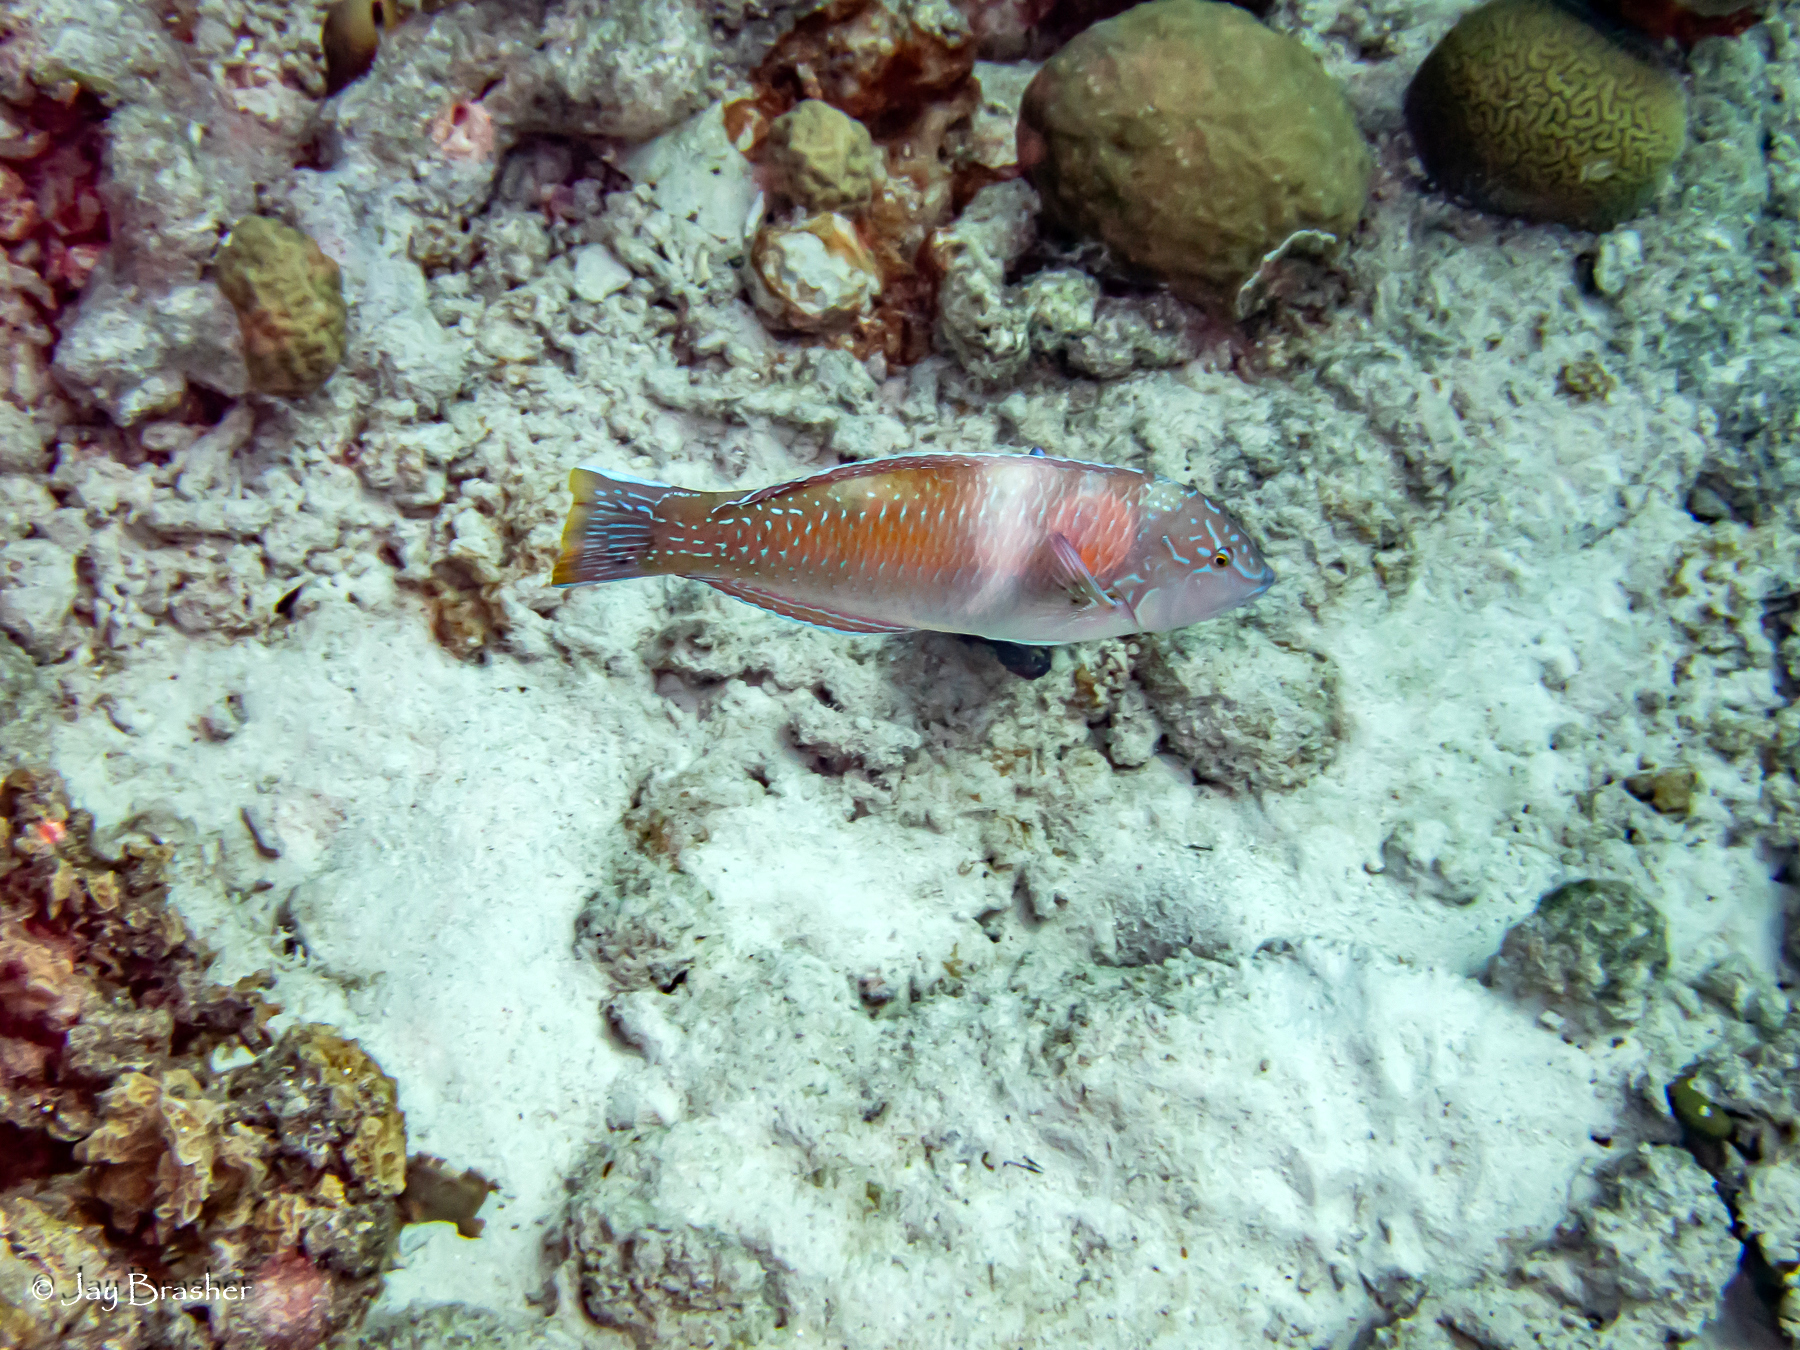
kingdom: Animalia
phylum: Chordata
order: Perciformes
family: Labridae
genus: Halichoeres
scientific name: Halichoeres radiatus
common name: Puddingwife
